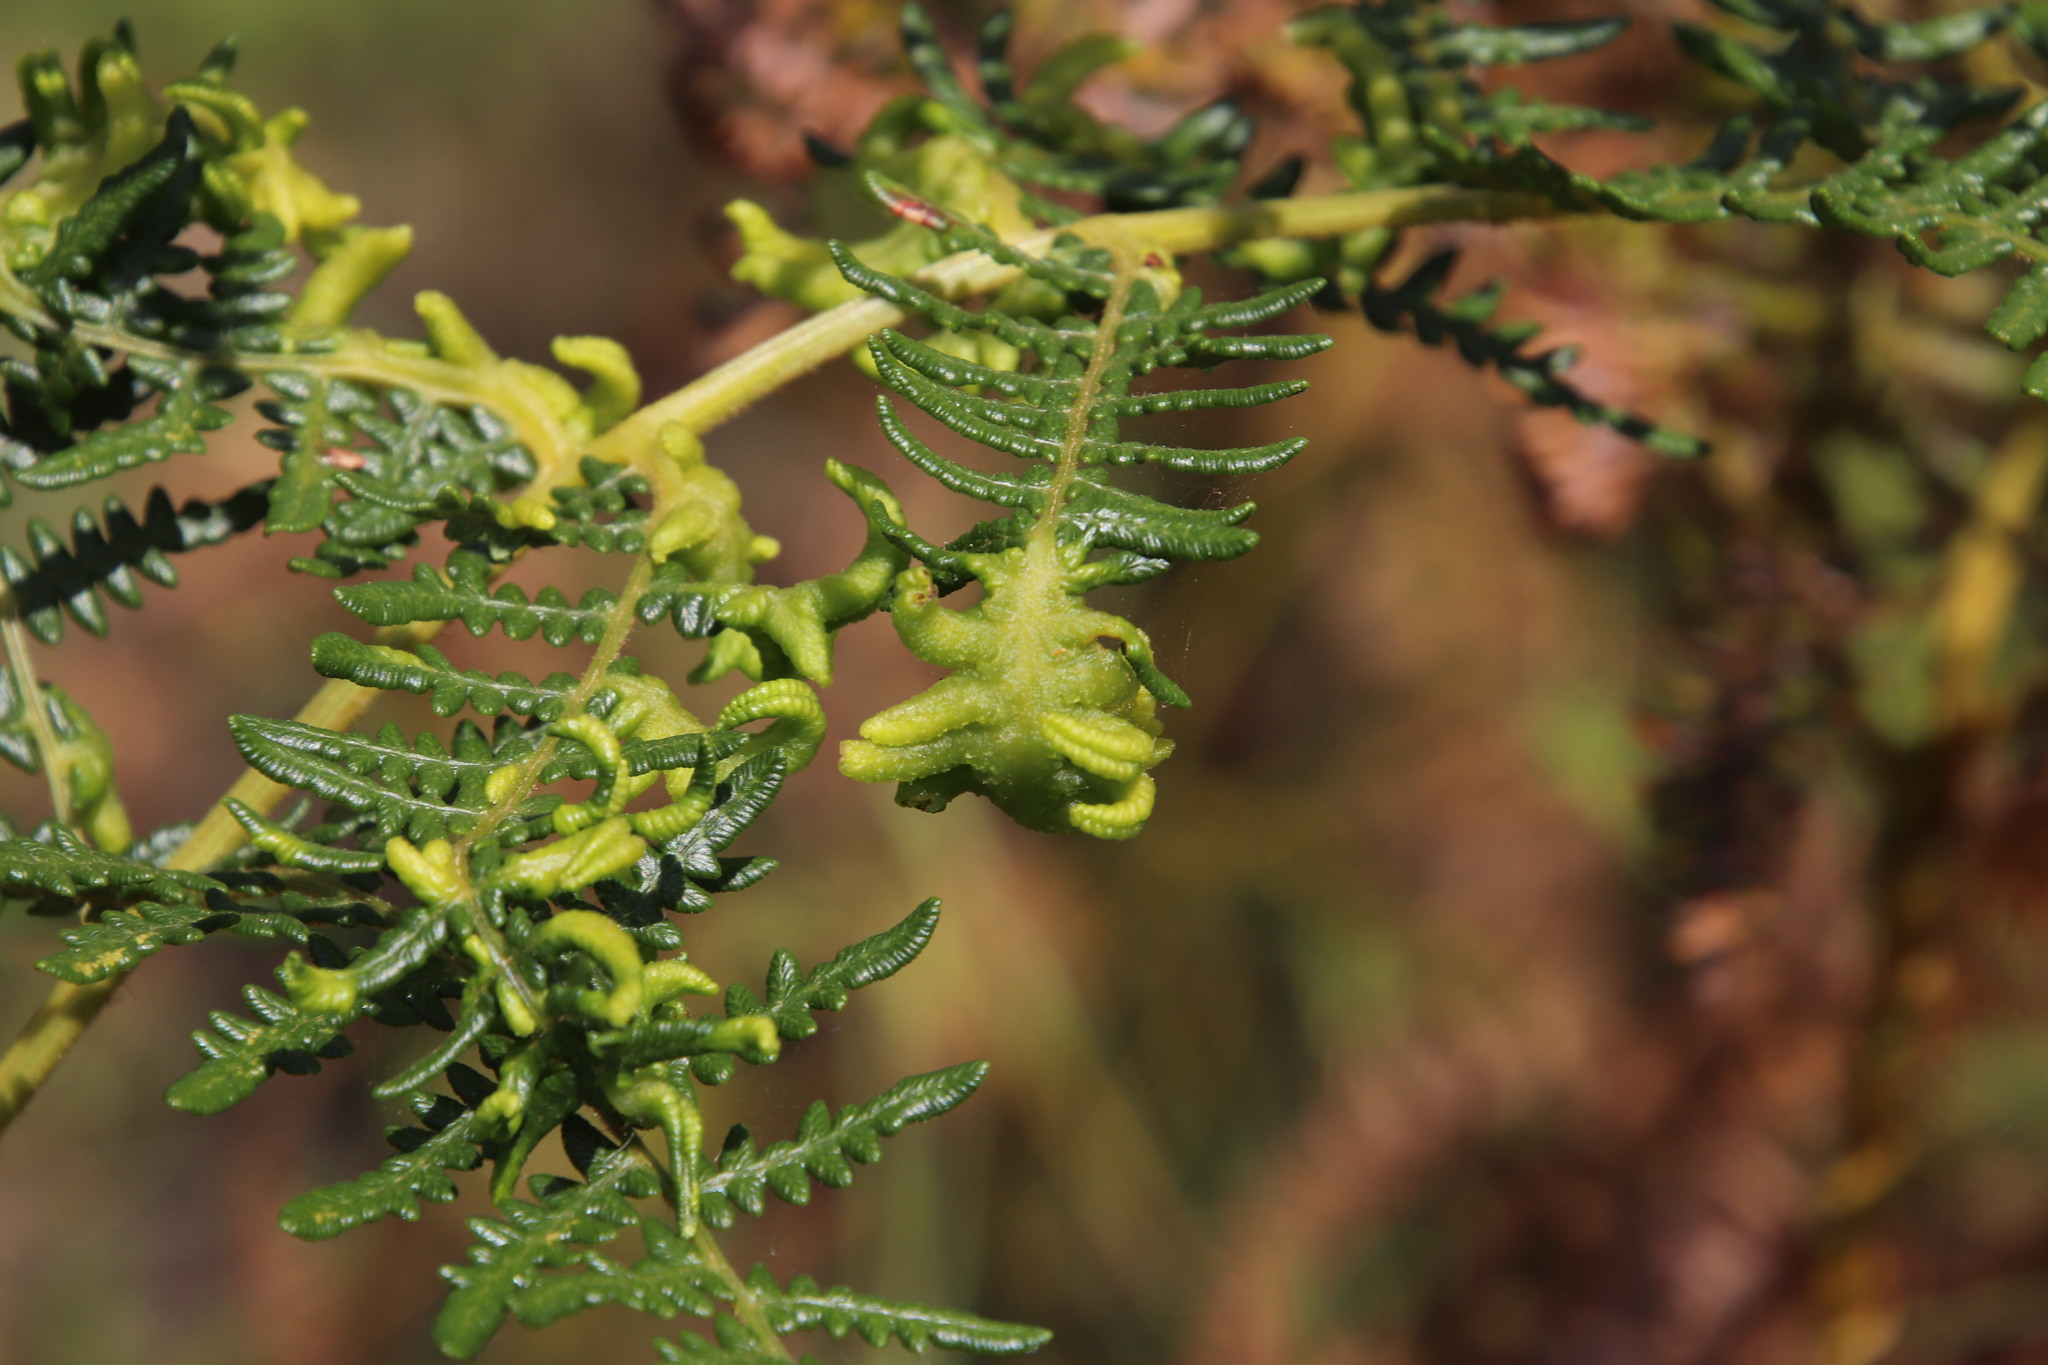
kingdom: Plantae
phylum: Tracheophyta
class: Polypodiopsida
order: Polypodiales
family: Dennstaedtiaceae
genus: Pteridium
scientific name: Pteridium aquilinum
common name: Bracken
